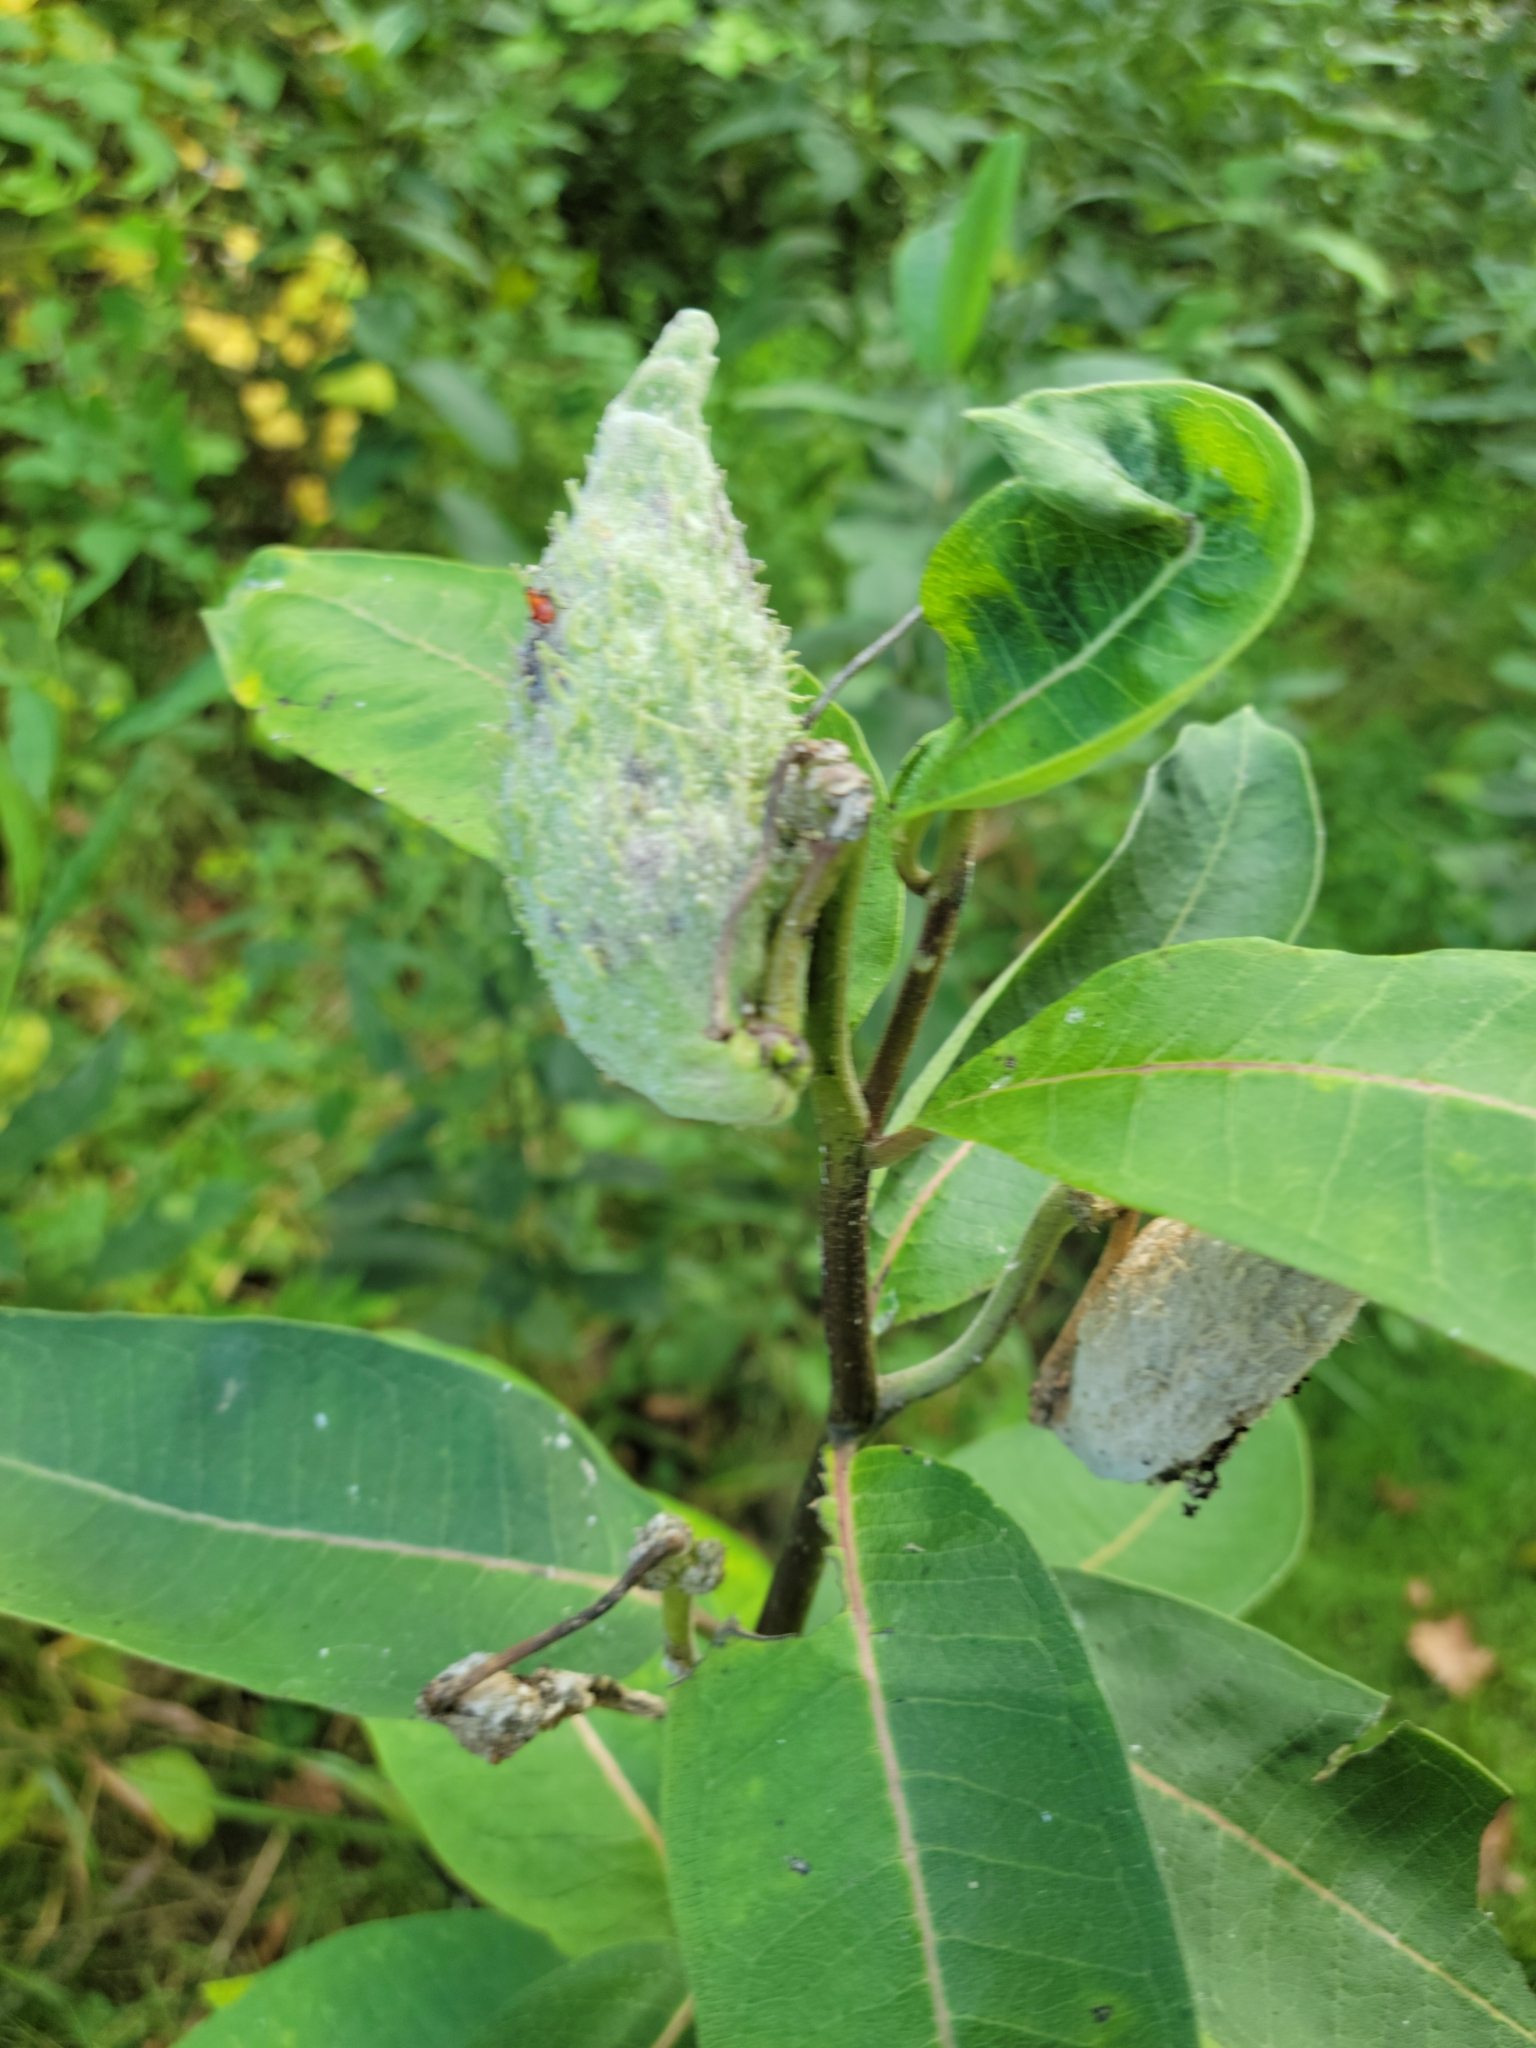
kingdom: Plantae
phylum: Tracheophyta
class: Magnoliopsida
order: Gentianales
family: Apocynaceae
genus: Asclepias
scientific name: Asclepias syriaca
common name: Common milkweed
